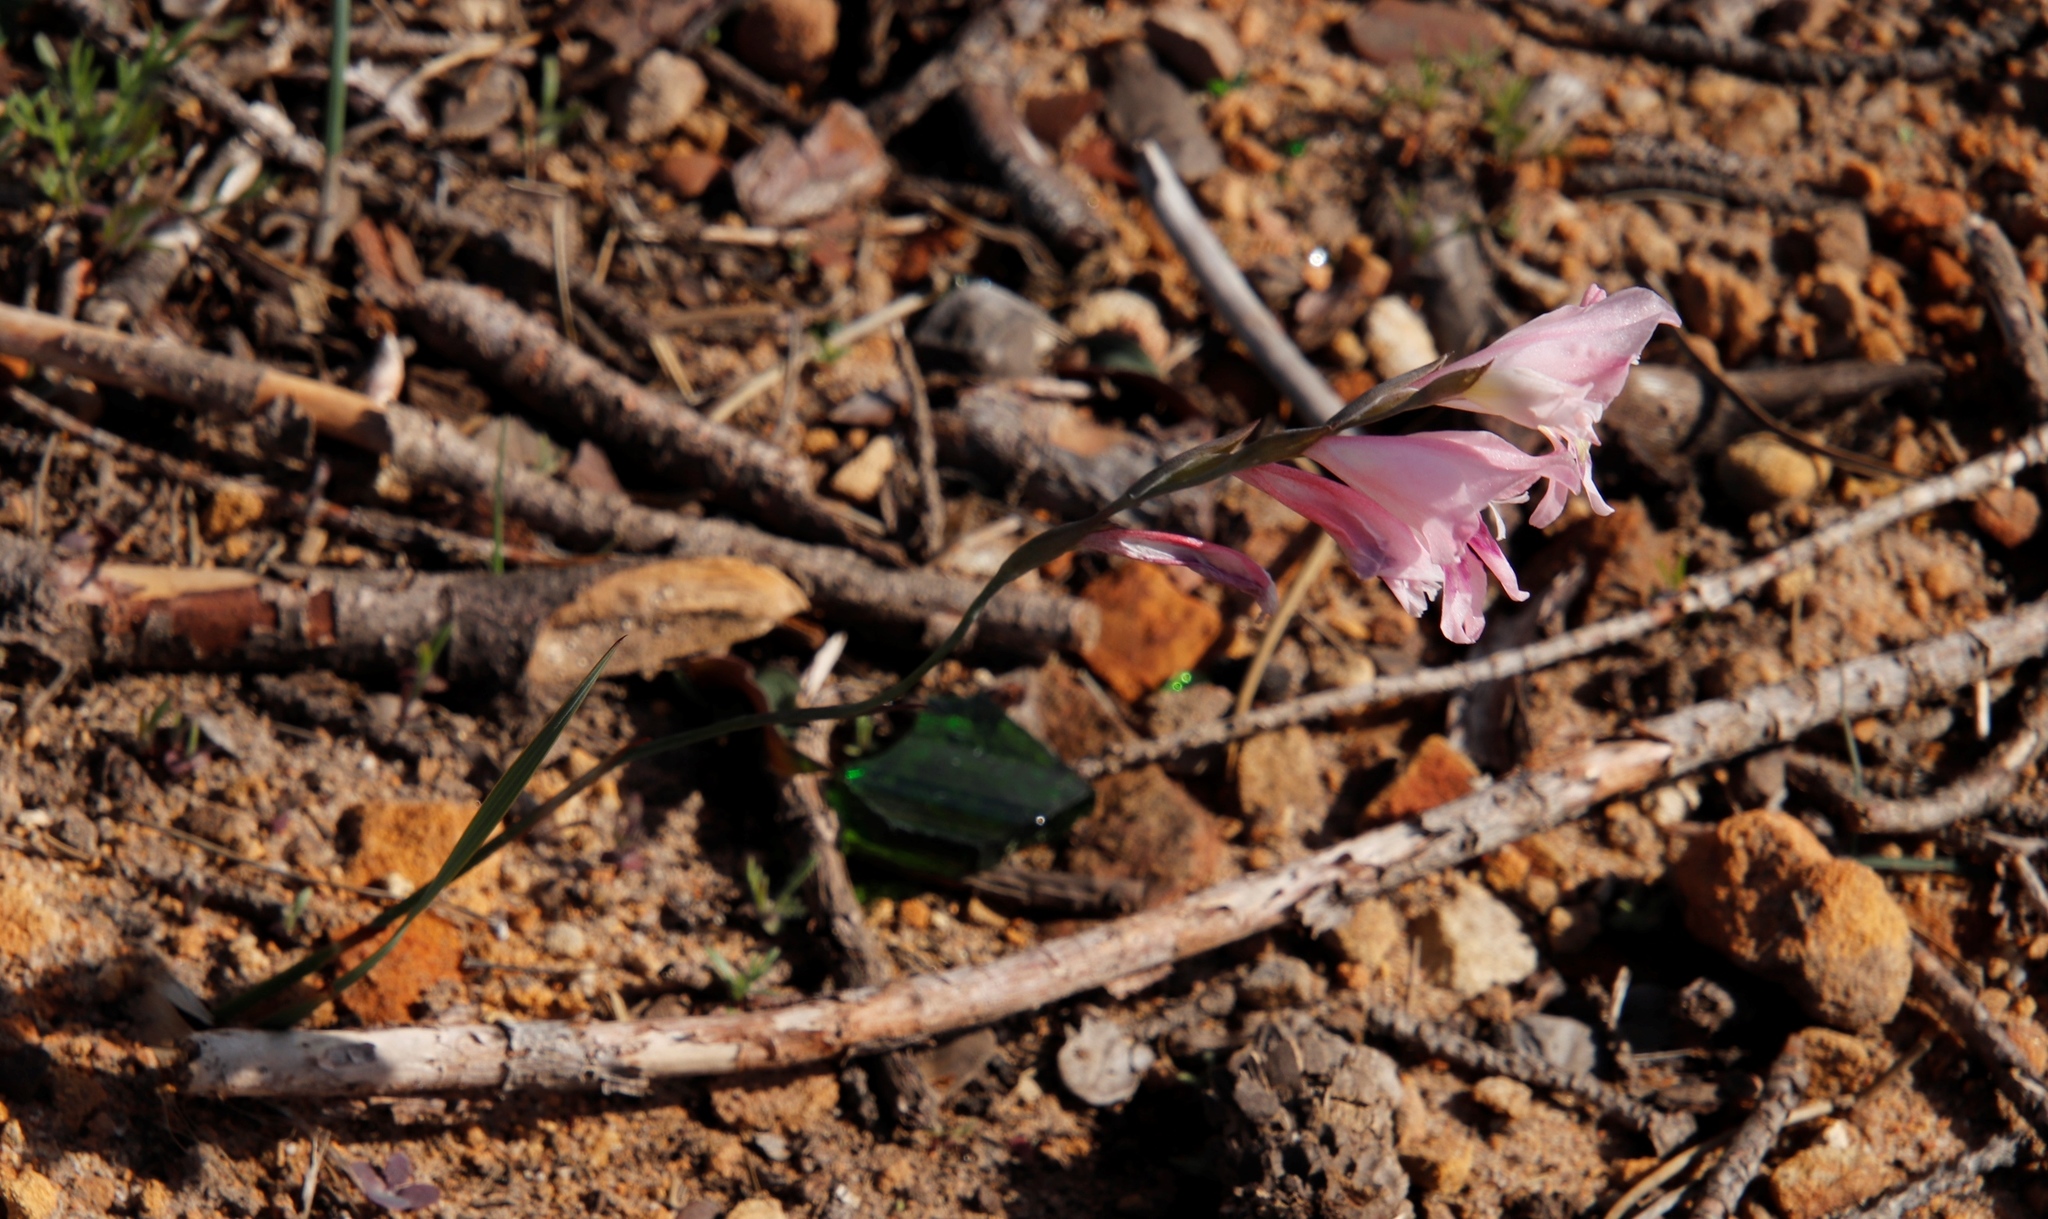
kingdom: Plantae
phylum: Tracheophyta
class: Liliopsida
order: Asparagales
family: Iridaceae
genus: Gladiolus
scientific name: Gladiolus brevifolius
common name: March pypie
